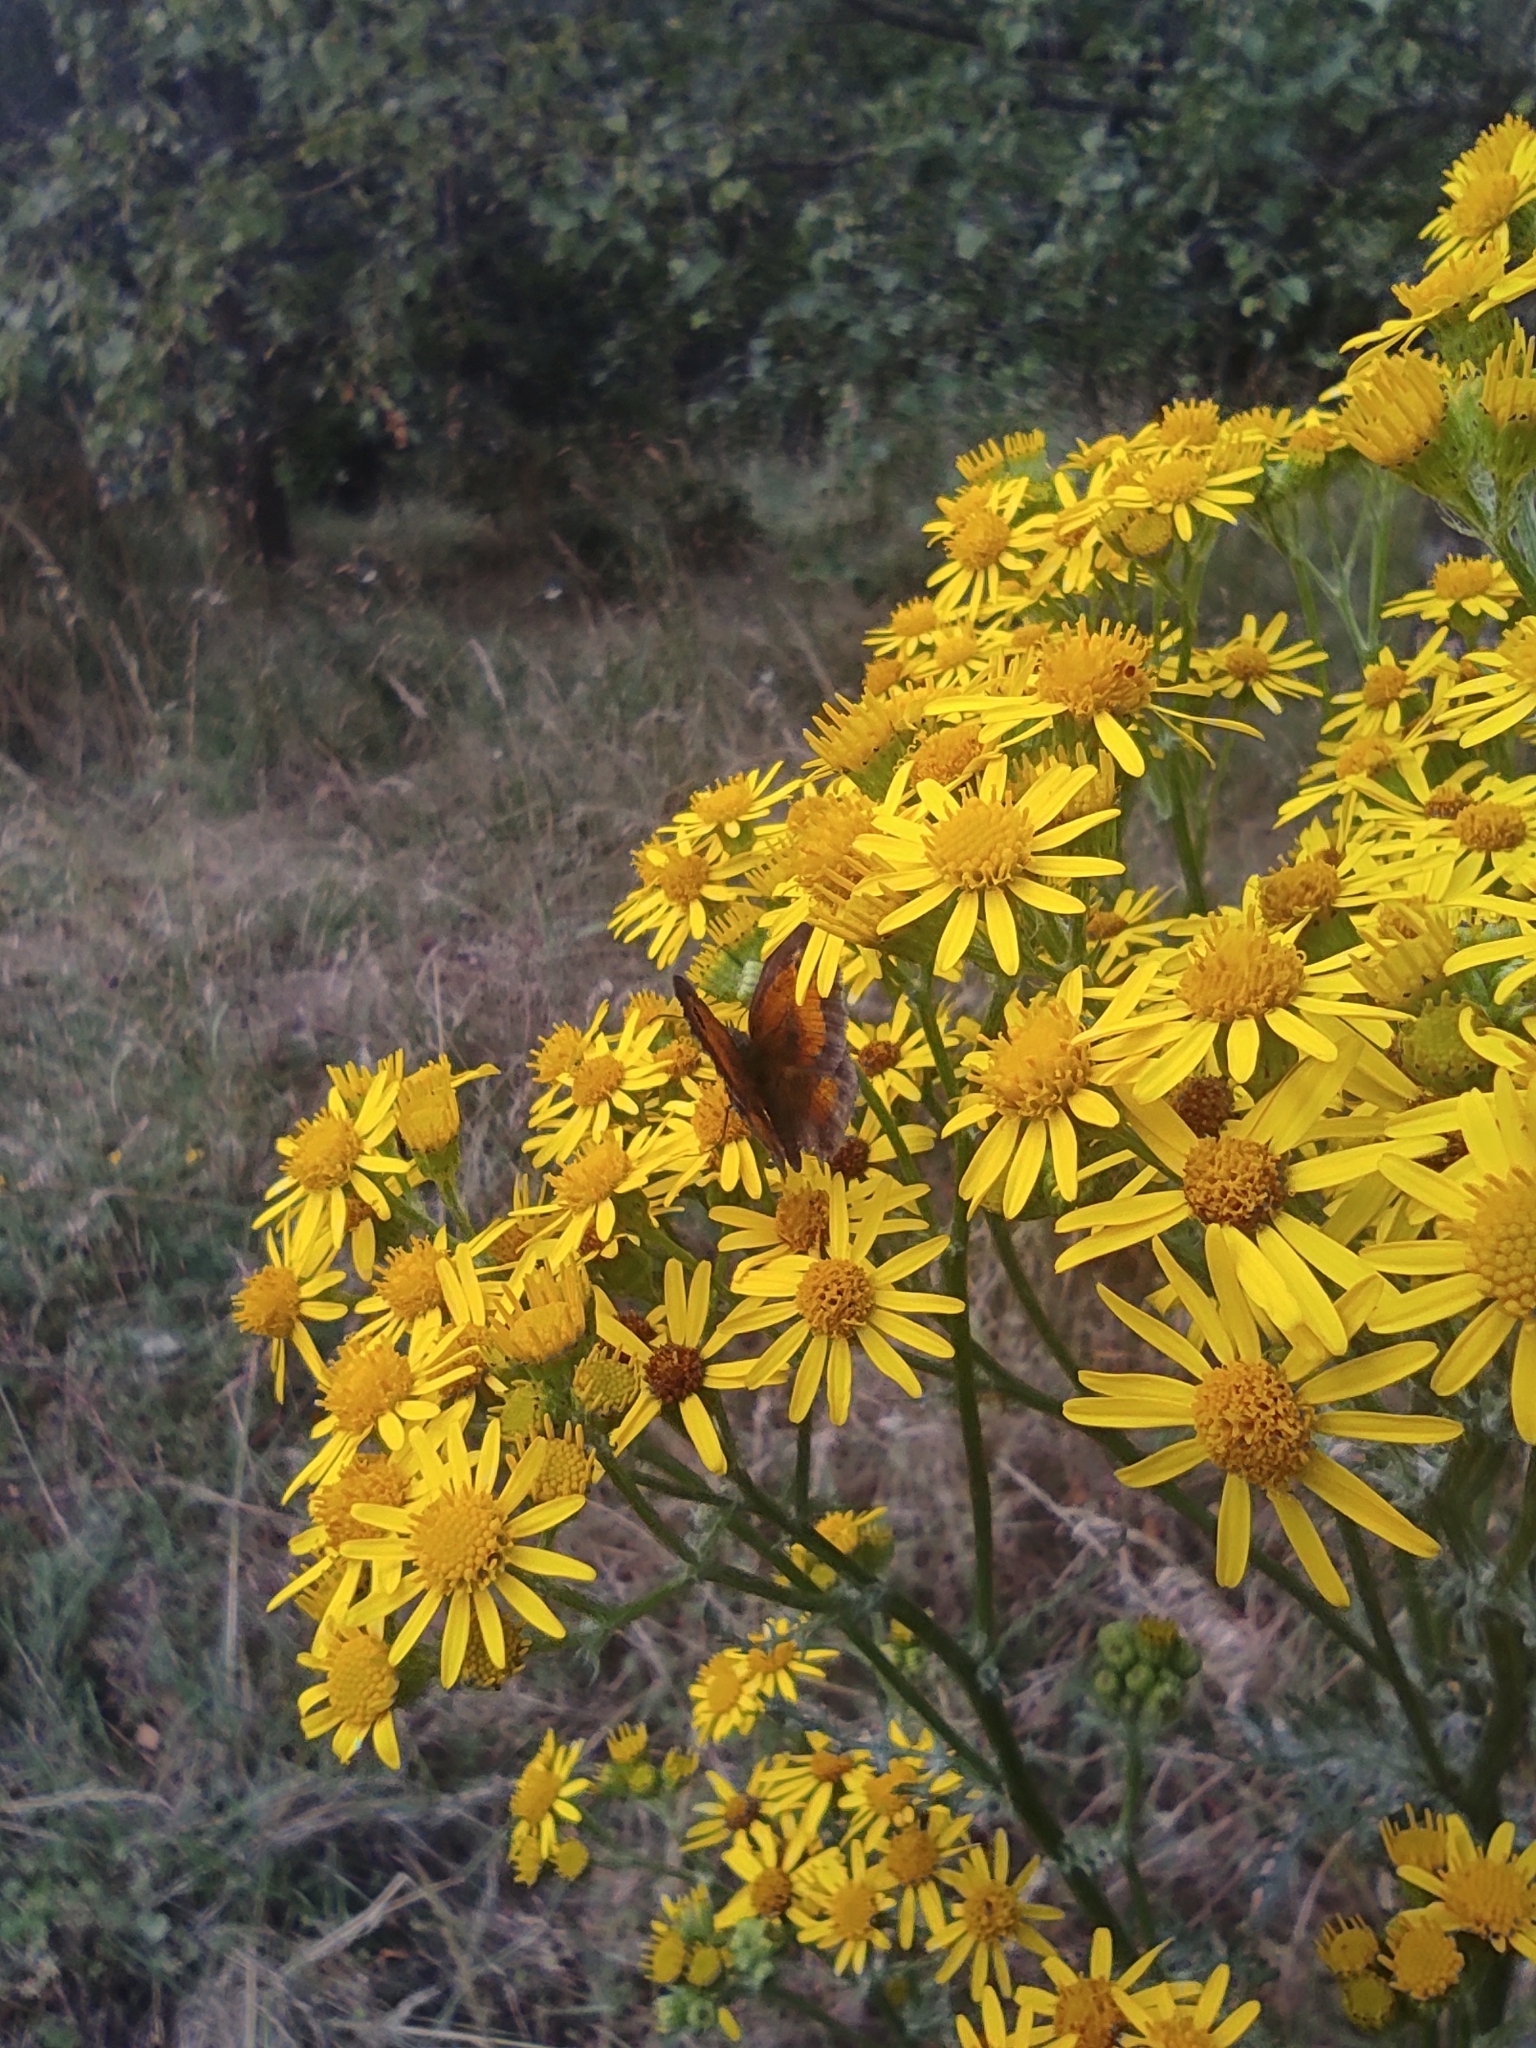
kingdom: Animalia
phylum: Arthropoda
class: Insecta
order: Lepidoptera
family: Nymphalidae
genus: Pyronia
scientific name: Pyronia tithonus
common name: Gatekeeper
